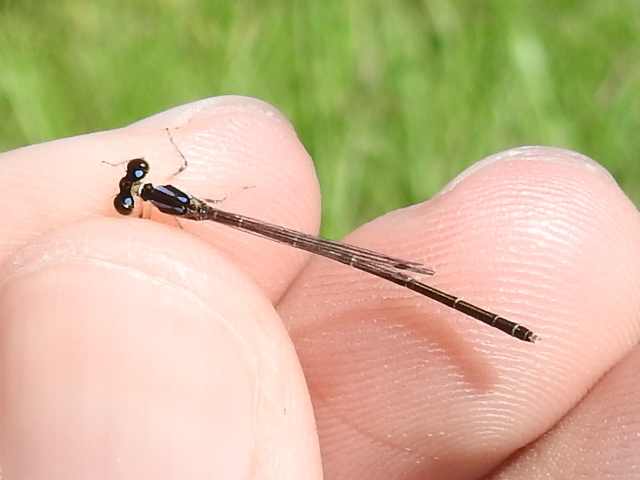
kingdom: Animalia
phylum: Arthropoda
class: Insecta
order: Odonata
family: Coenagrionidae
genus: Ischnura
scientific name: Ischnura posita
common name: Fragile forktail
